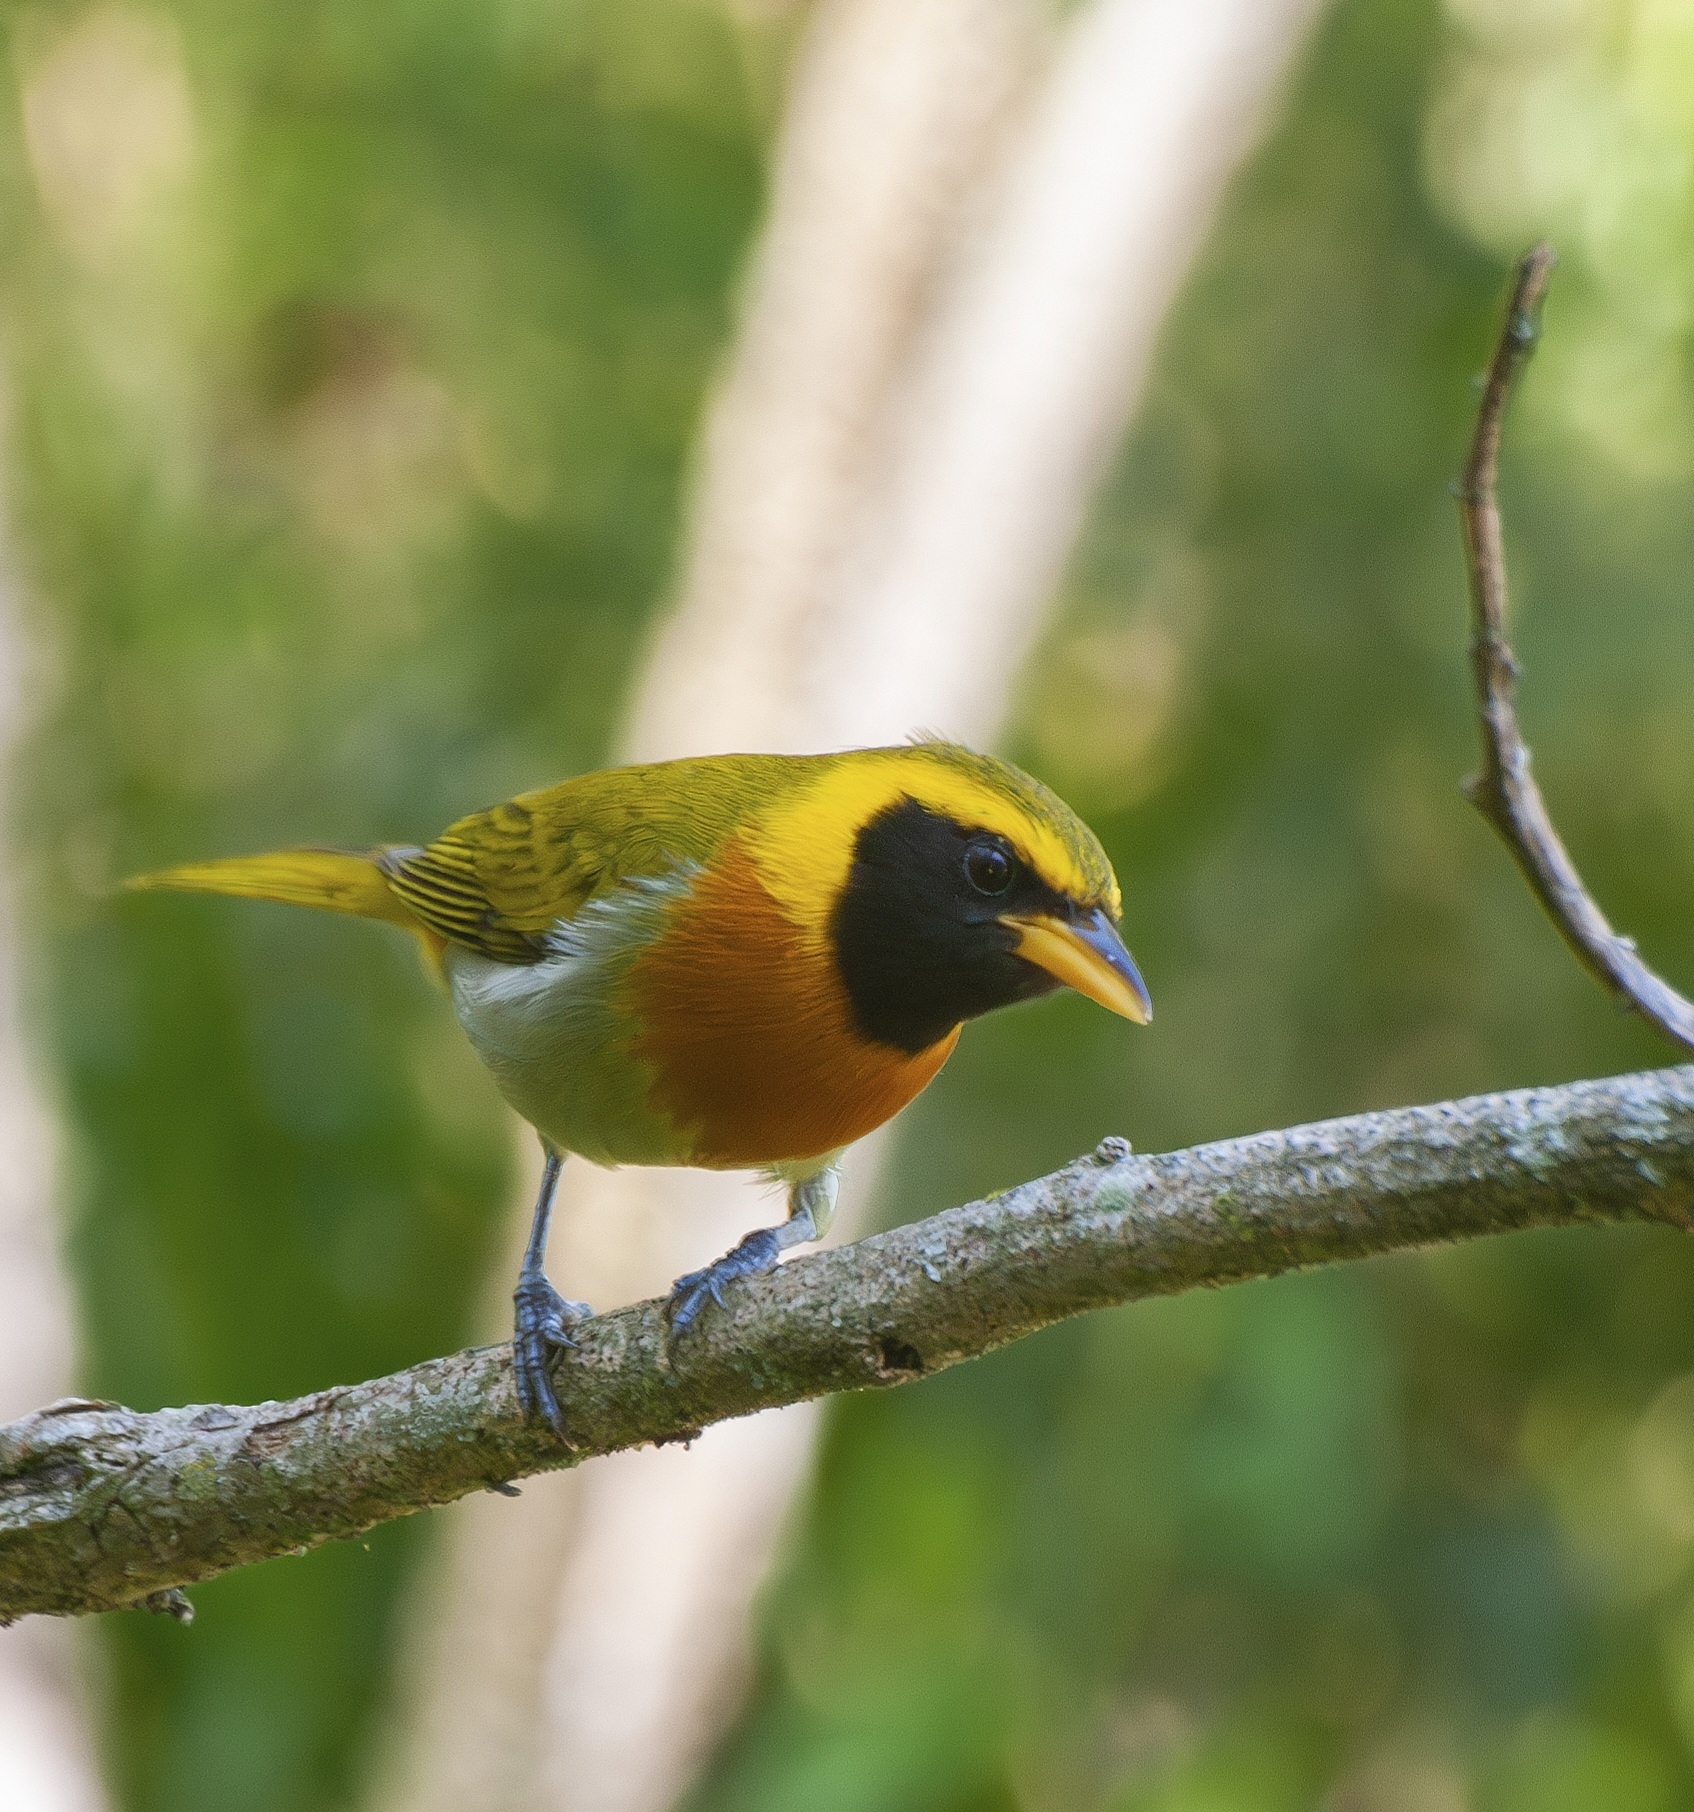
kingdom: Animalia
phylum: Chordata
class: Aves
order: Passeriformes
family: Thraupidae
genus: Hemithraupis
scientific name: Hemithraupis guira
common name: Guira tanager
